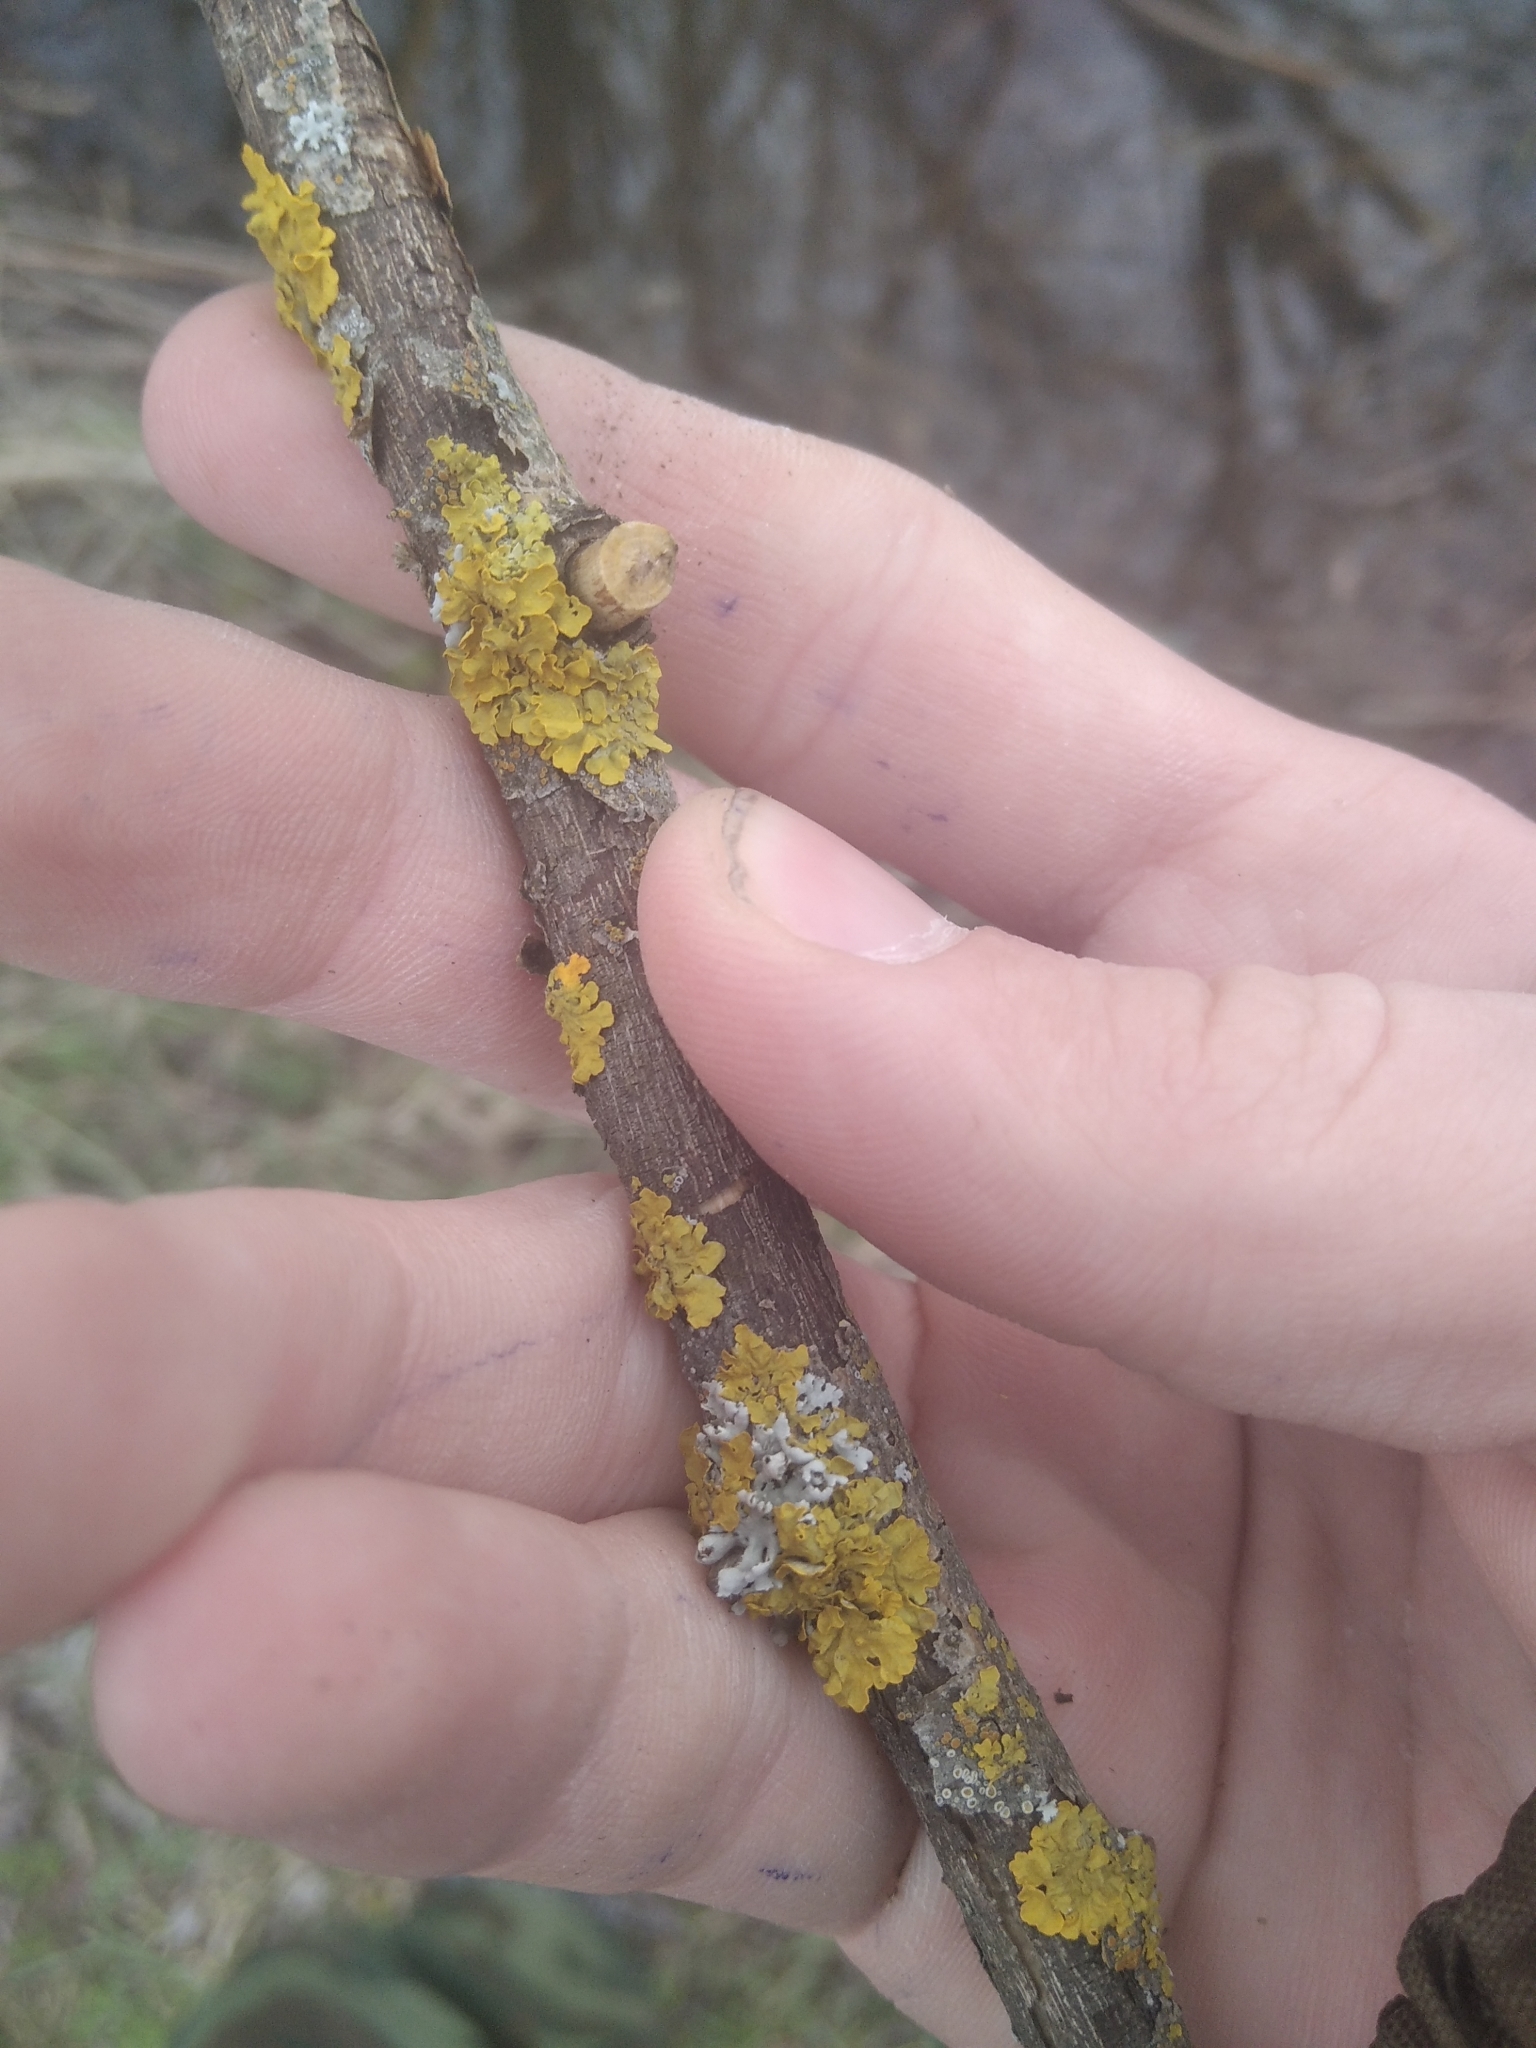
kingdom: Fungi
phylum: Ascomycota
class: Lecanoromycetes
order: Teloschistales
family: Teloschistaceae
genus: Xanthoria
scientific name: Xanthoria parietina
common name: Common orange lichen
